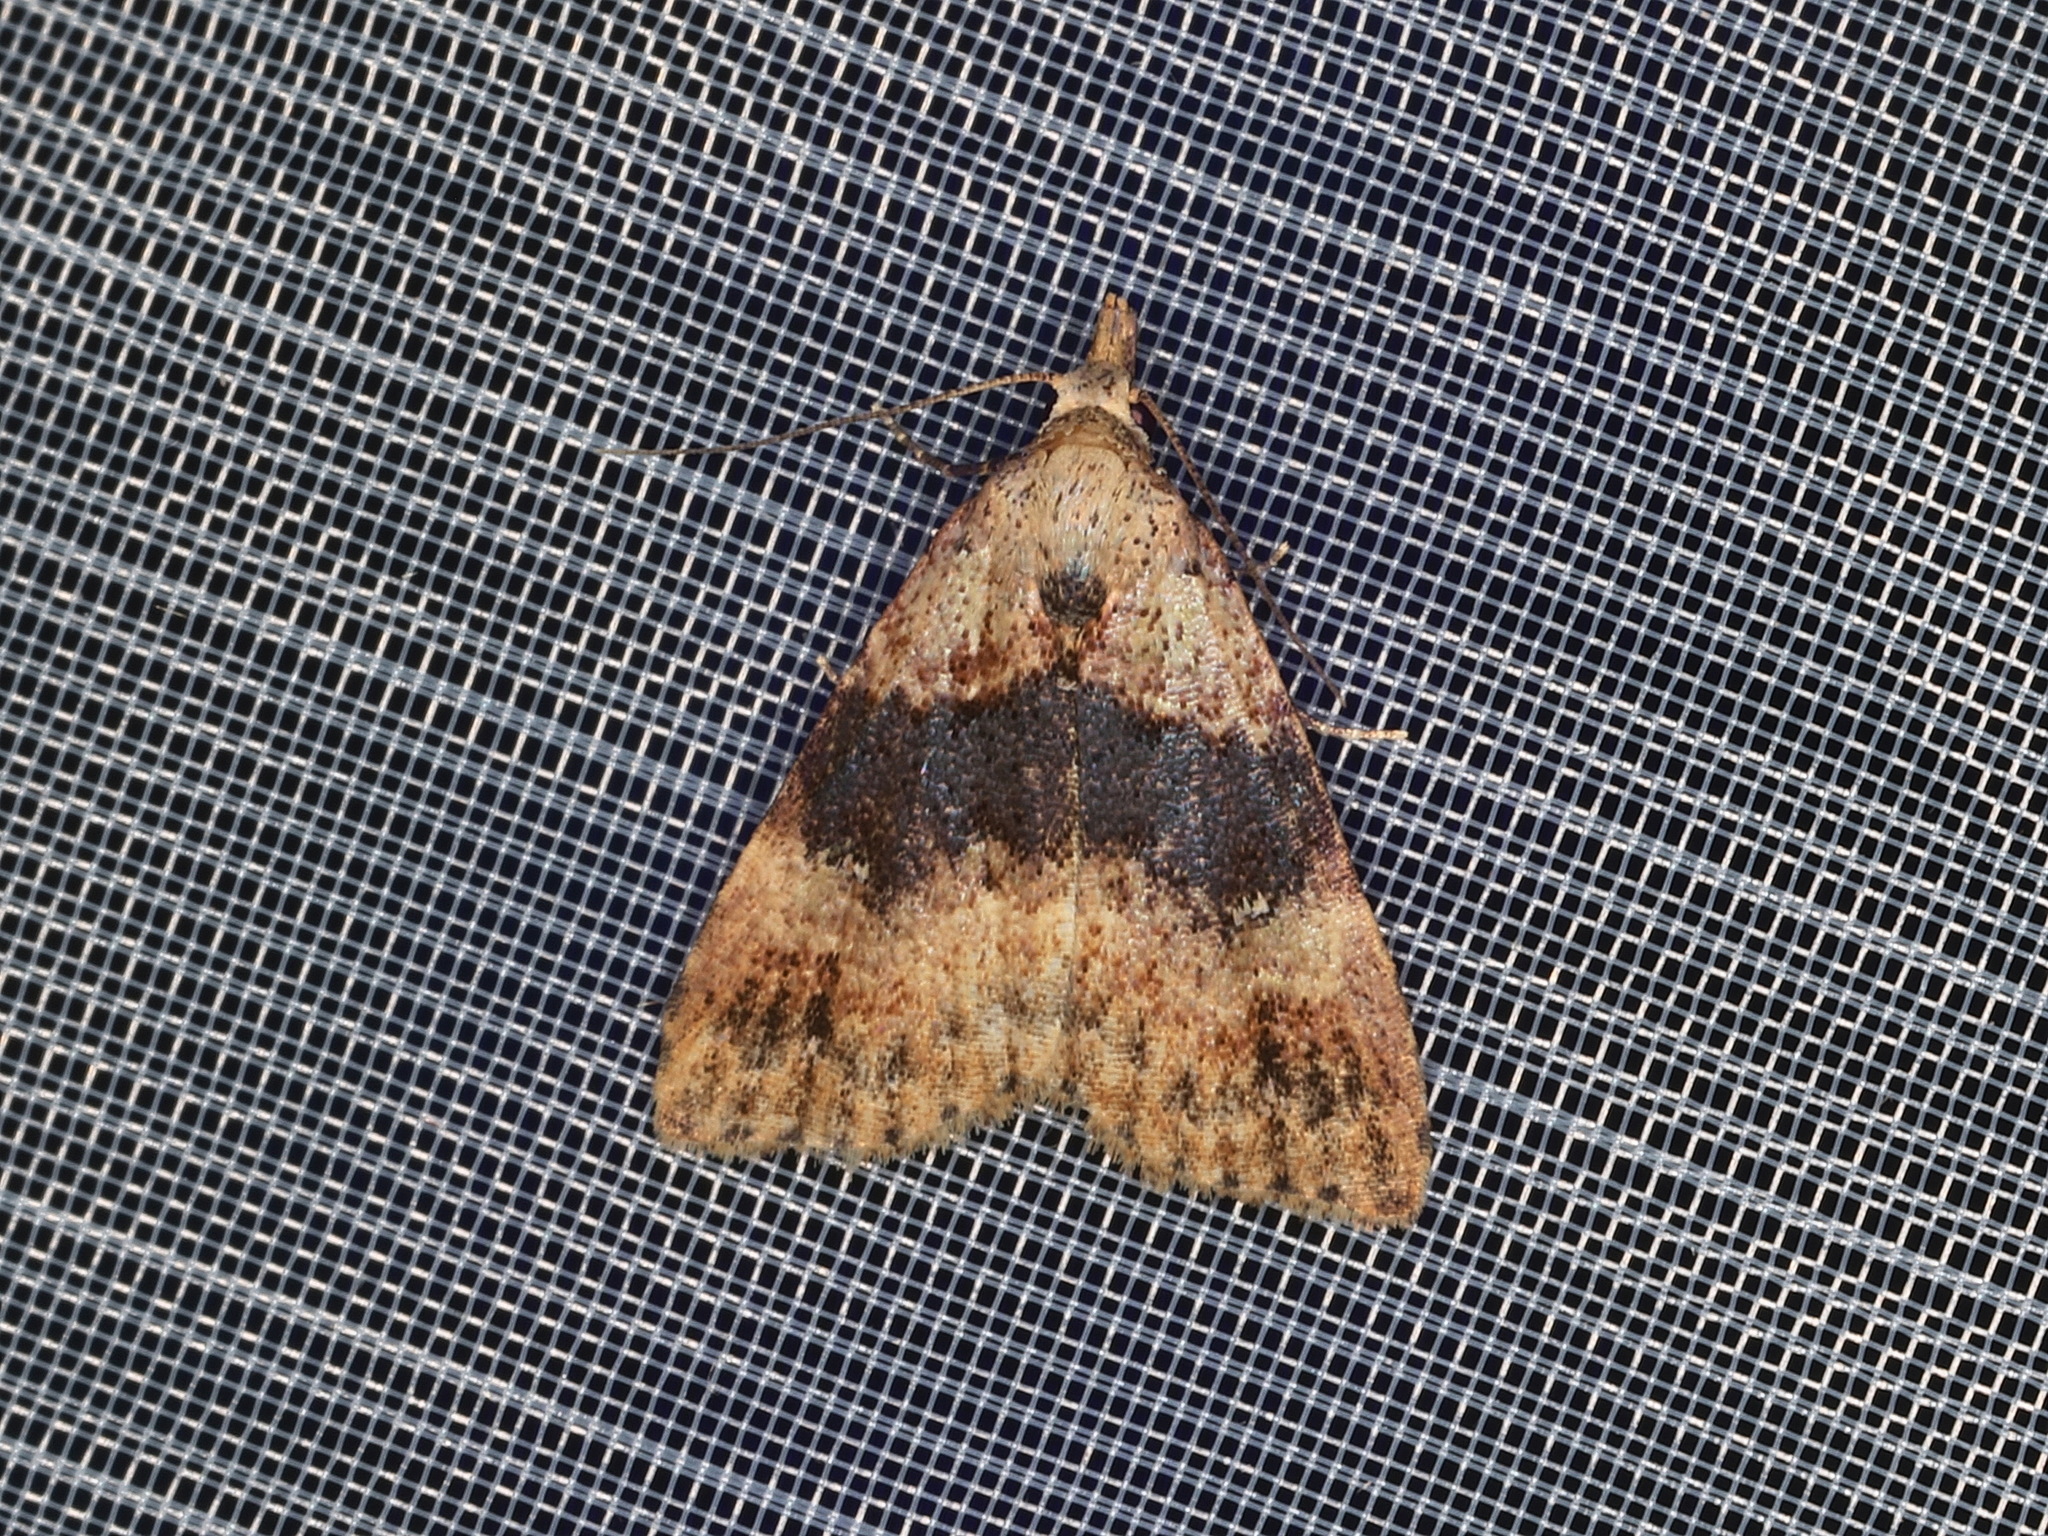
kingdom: Animalia
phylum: Arthropoda
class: Insecta
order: Lepidoptera
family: Erebidae
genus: Alapadna
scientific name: Alapadna pauropis
